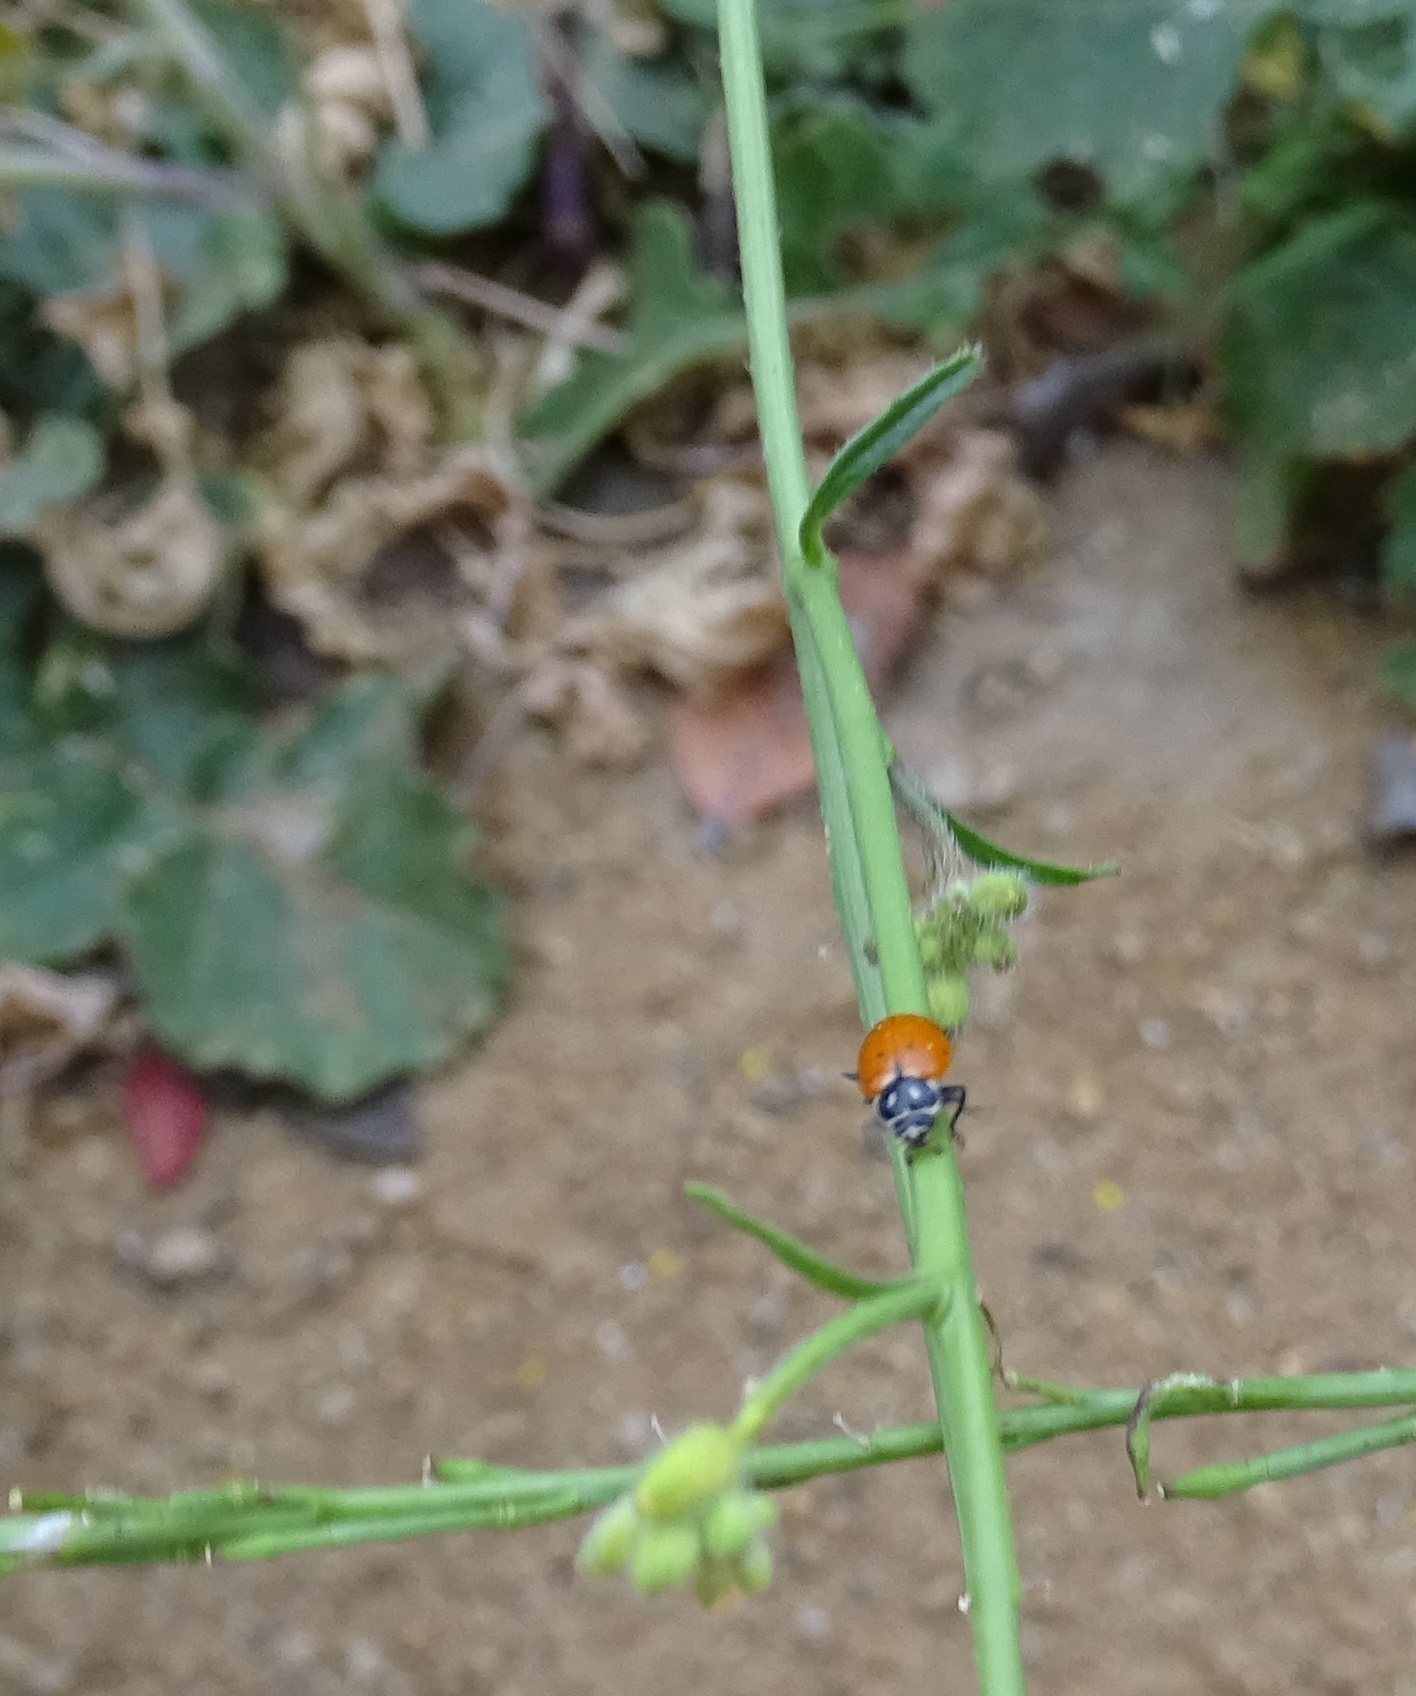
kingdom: Animalia
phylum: Arthropoda
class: Insecta
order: Coleoptera
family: Coccinellidae
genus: Hippodamia
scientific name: Hippodamia convergens
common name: Convergent lady beetle
